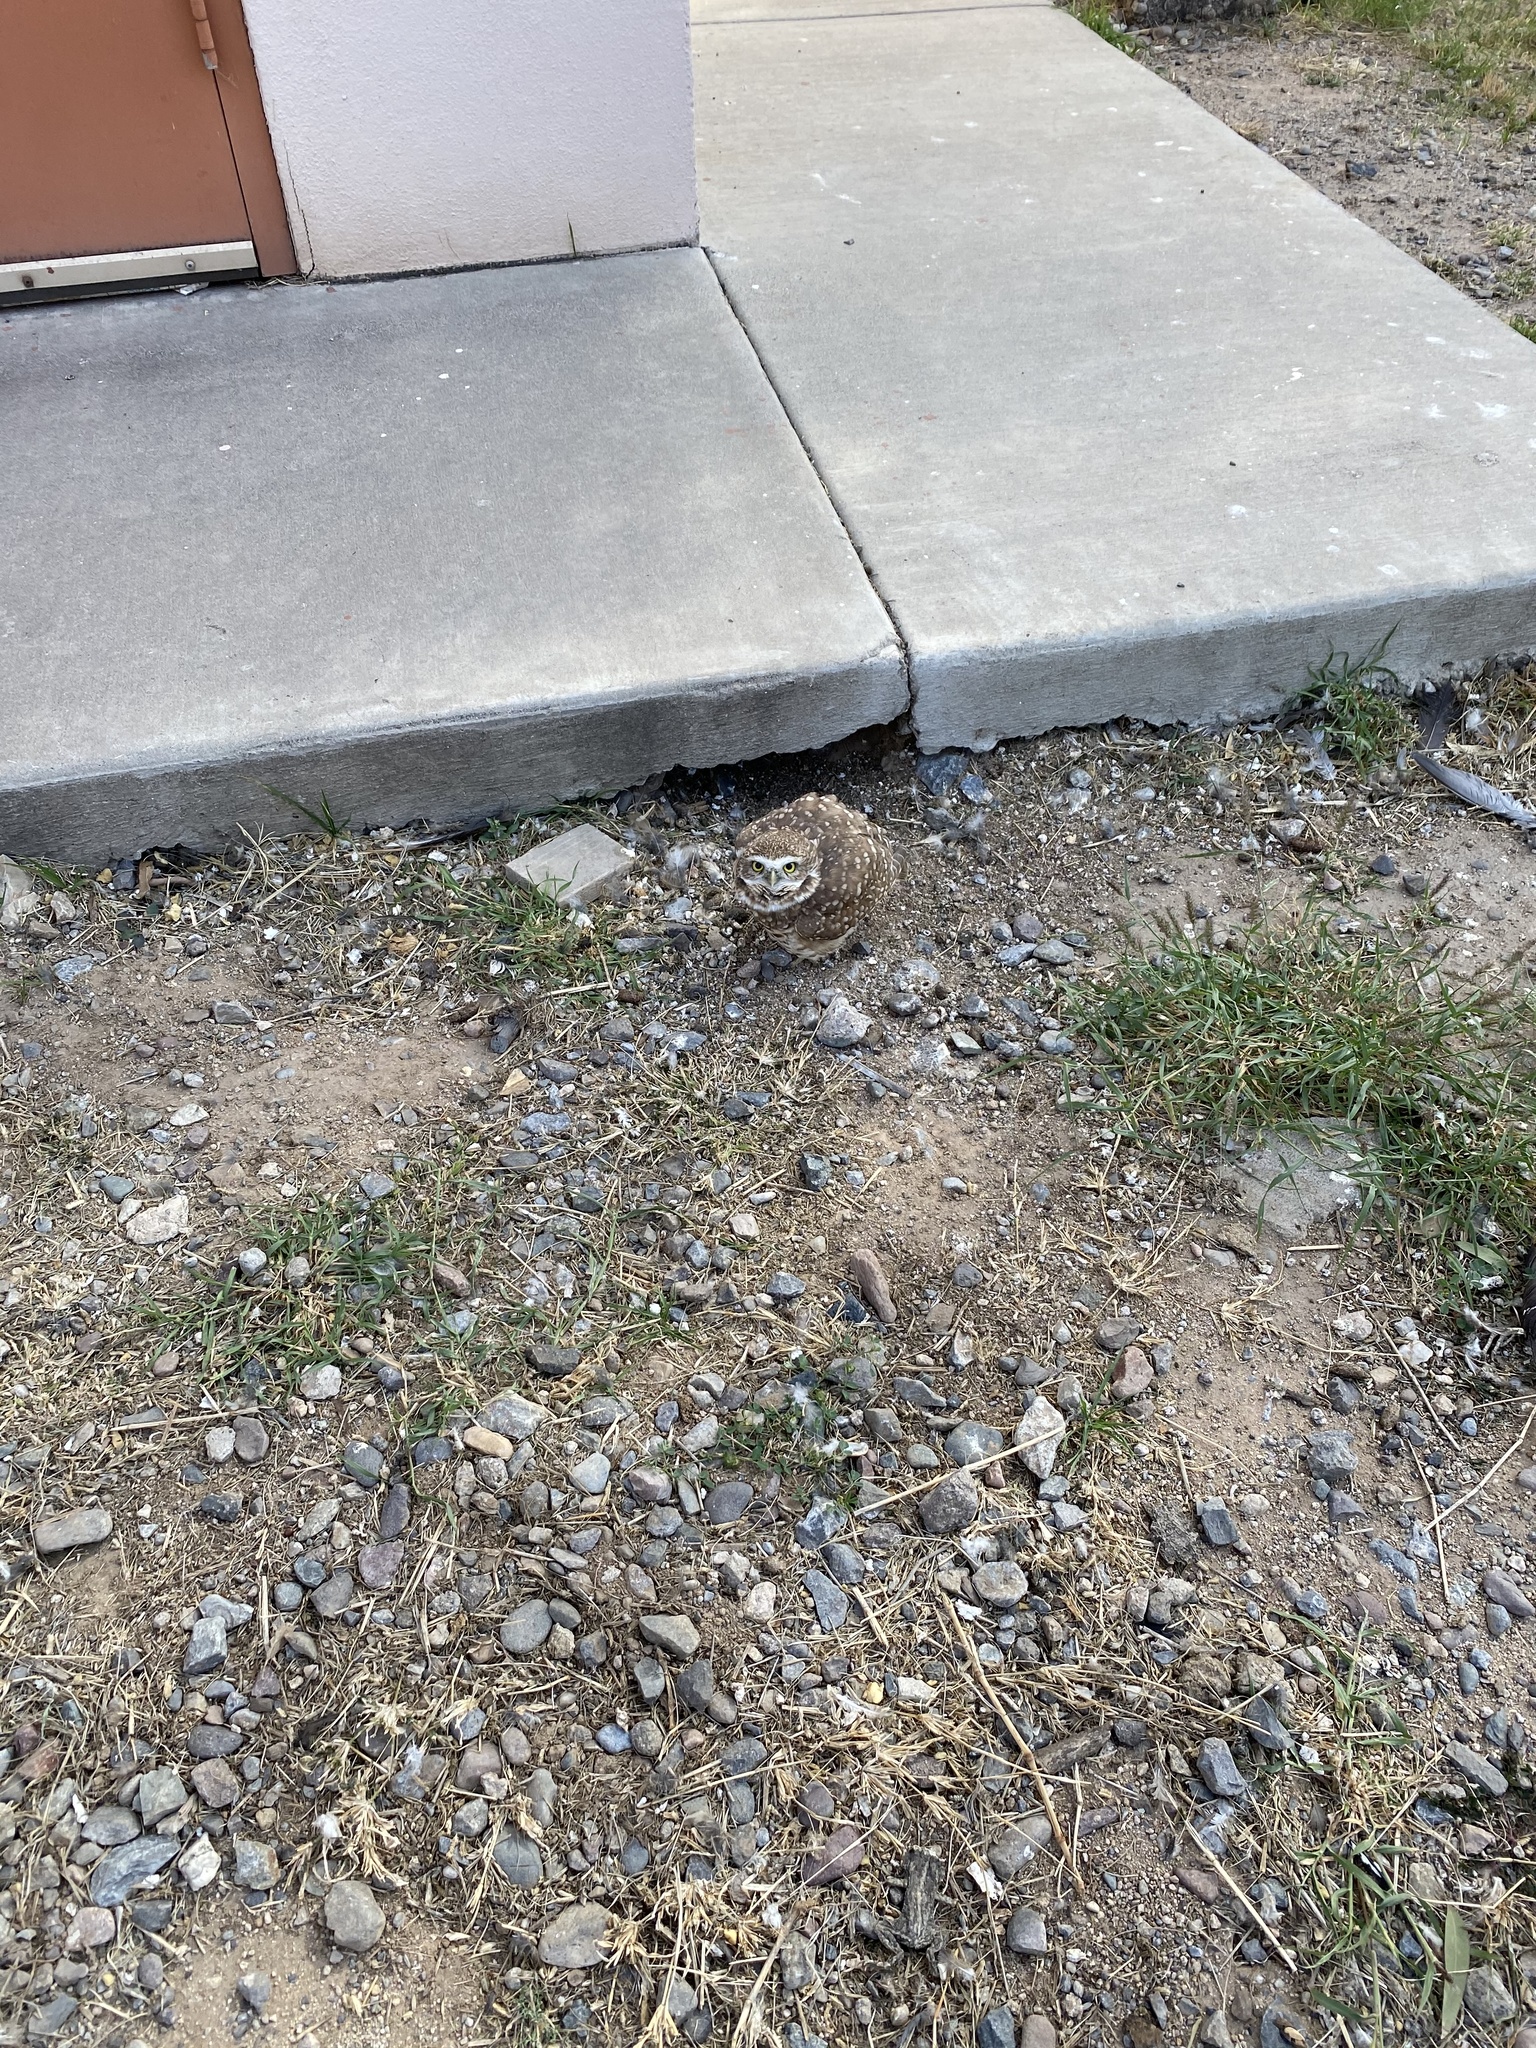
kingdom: Animalia
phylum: Chordata
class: Aves
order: Strigiformes
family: Strigidae
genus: Athene
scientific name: Athene cunicularia
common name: Burrowing owl
